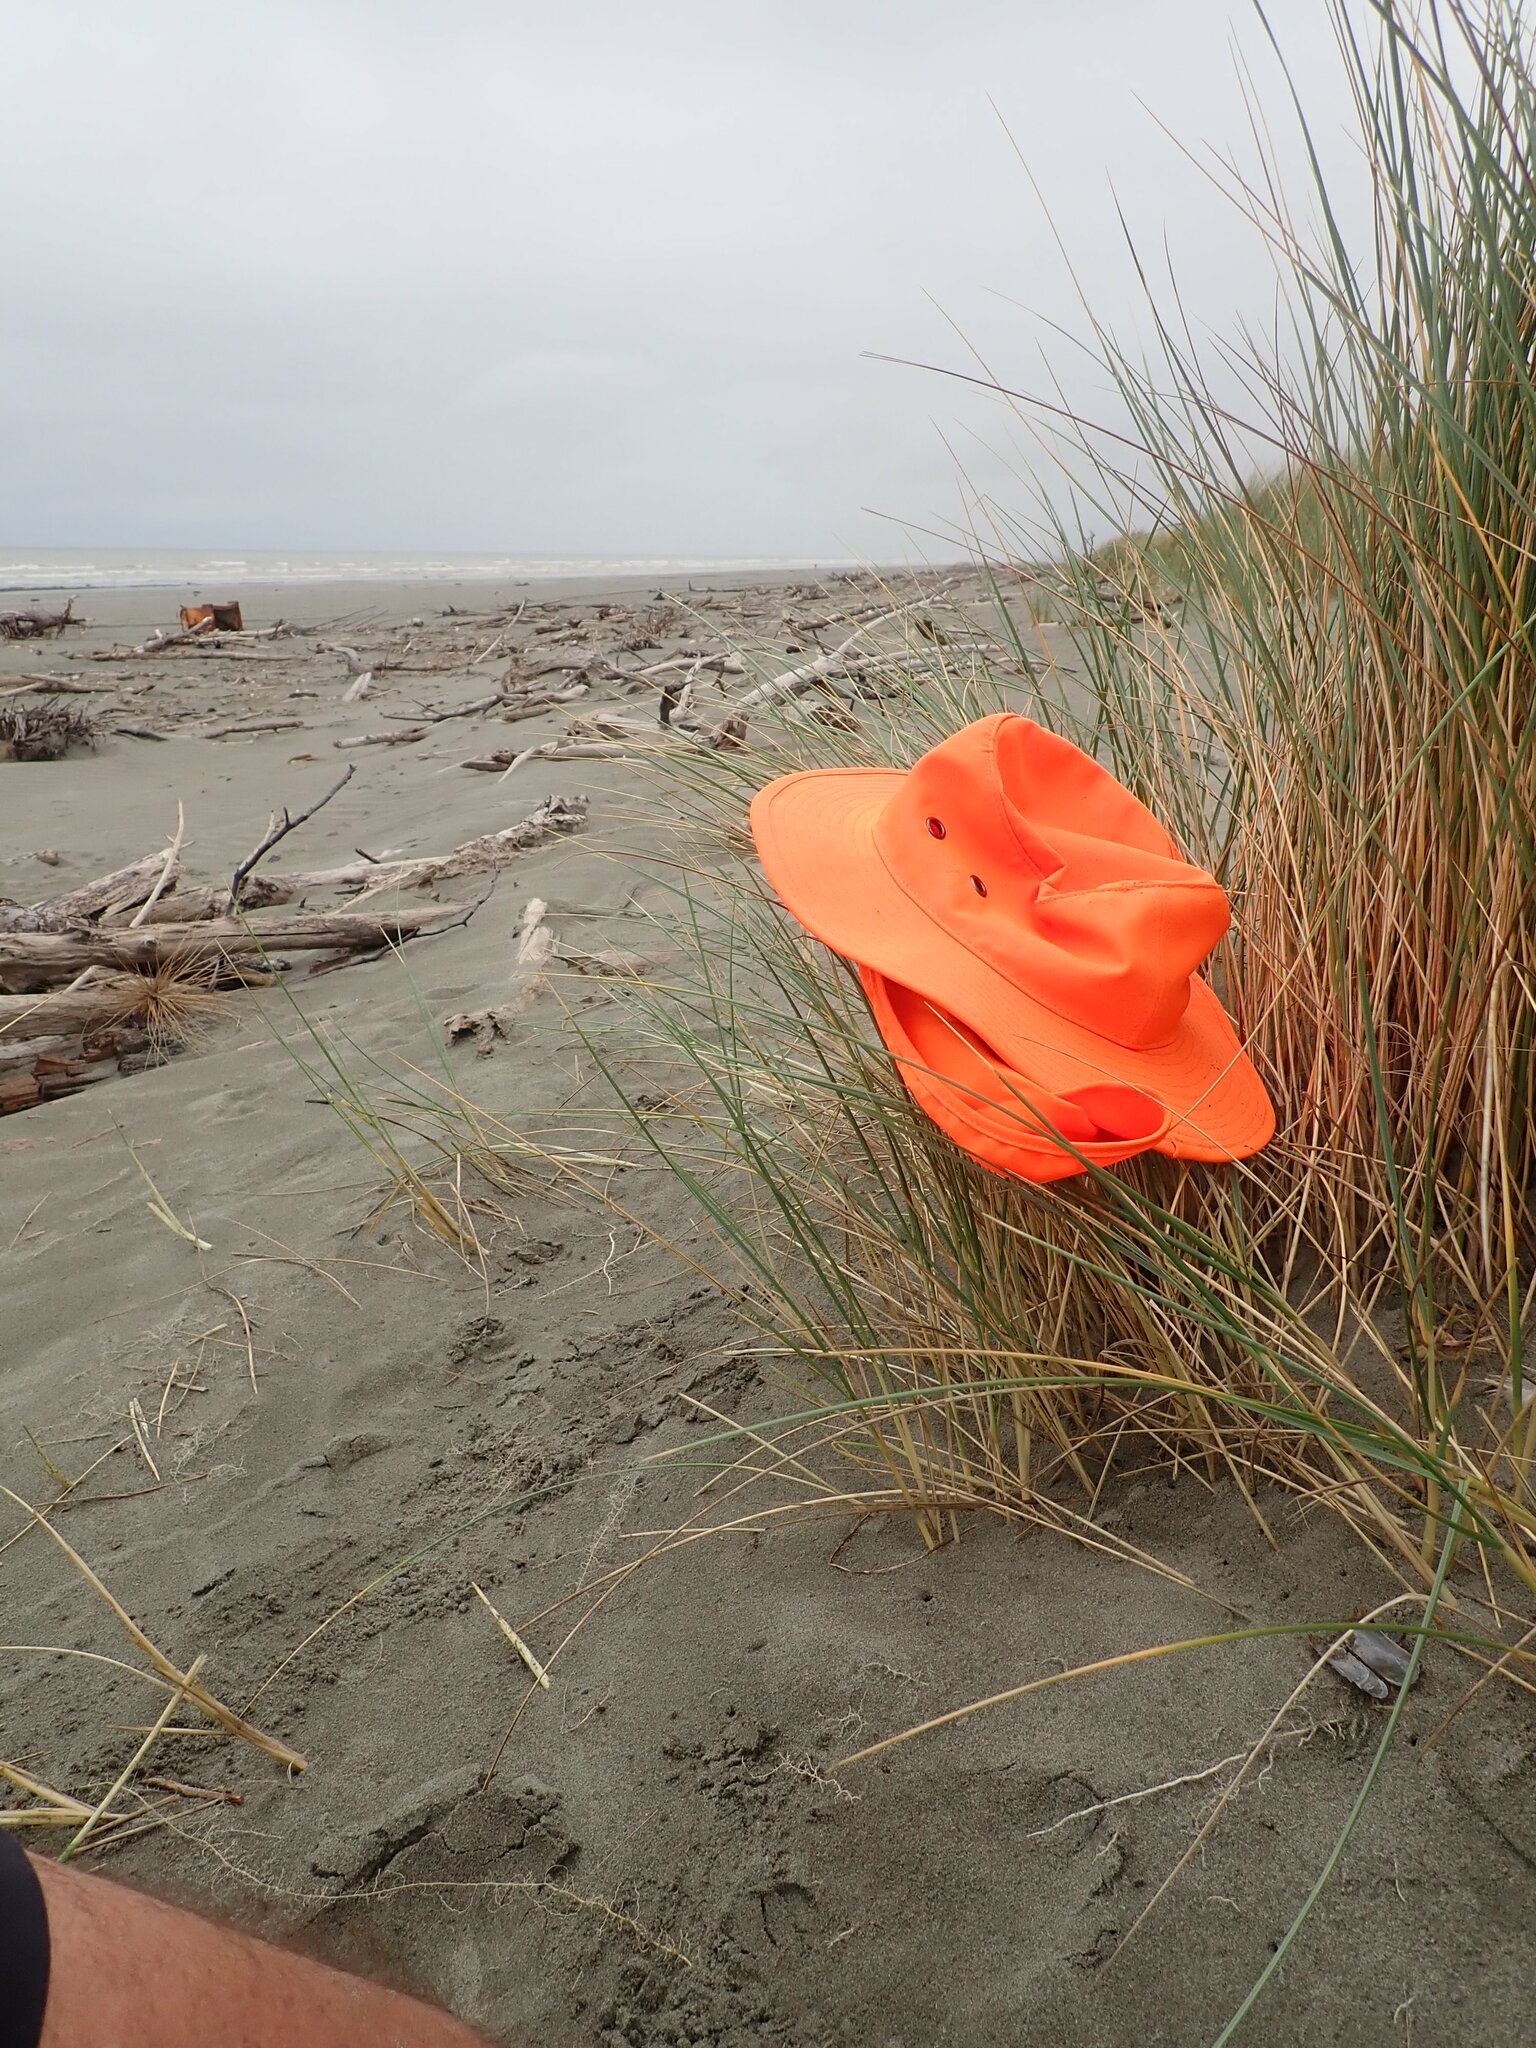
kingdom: Animalia
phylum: Mollusca
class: Bivalvia
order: Solemyida
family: Solemyidae
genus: Solemya
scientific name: Solemya parkinsonii
